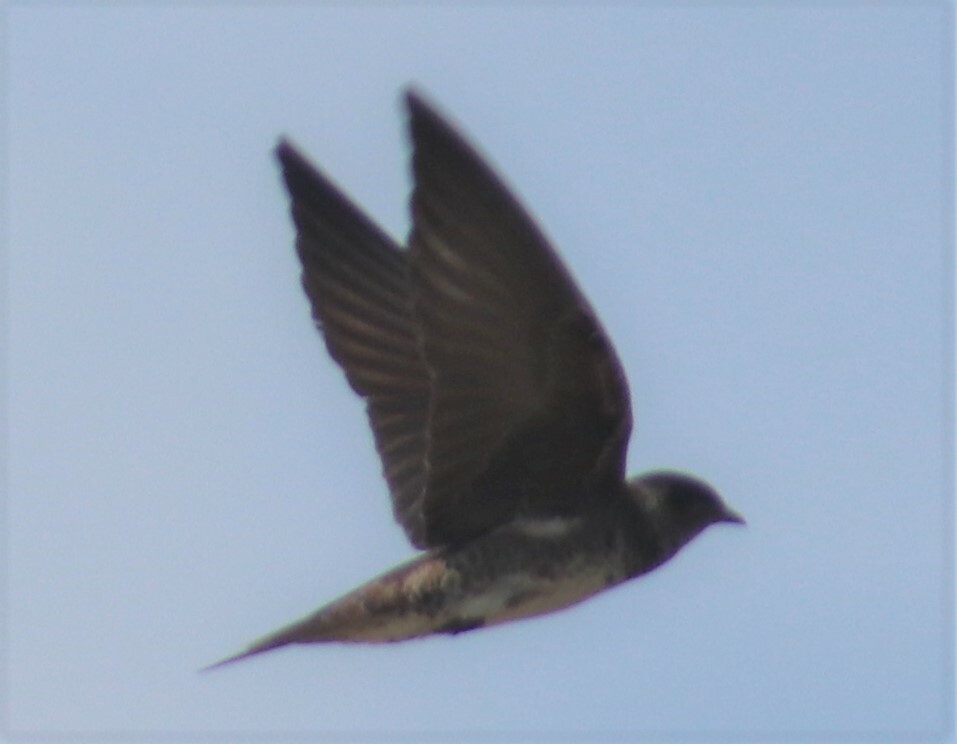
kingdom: Animalia
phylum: Chordata
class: Aves
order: Passeriformes
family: Hirundinidae
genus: Progne
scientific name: Progne subis
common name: Purple martin
